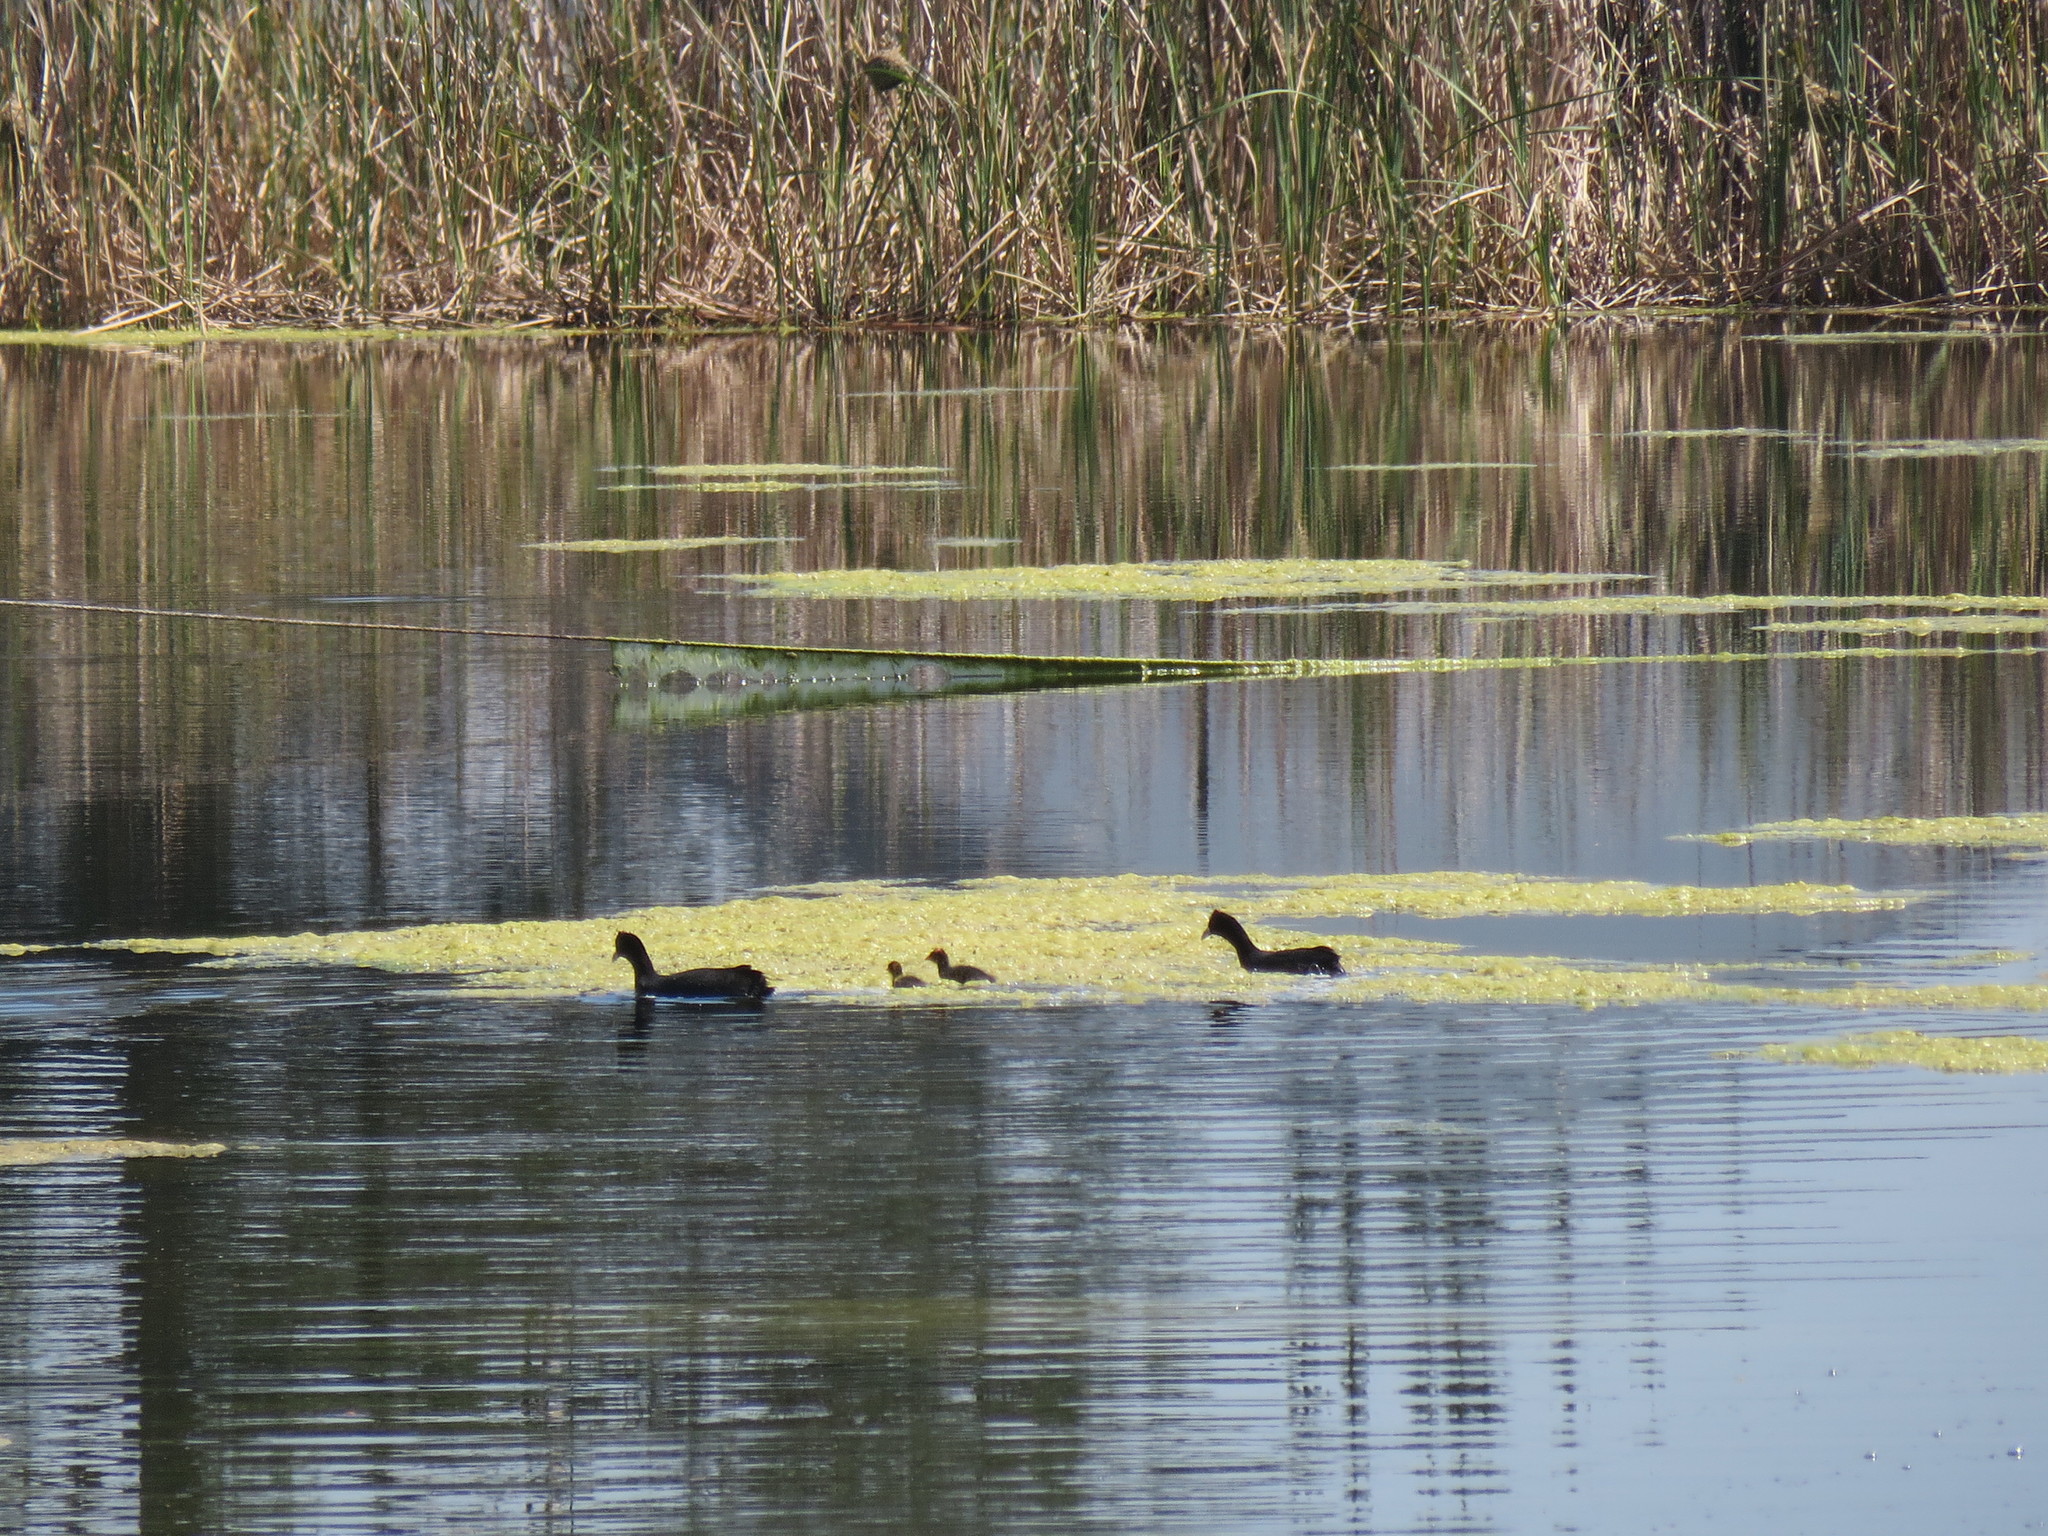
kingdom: Animalia
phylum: Chordata
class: Aves
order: Gruiformes
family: Rallidae
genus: Fulica
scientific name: Fulica cristata
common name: Red-knobbed coot
